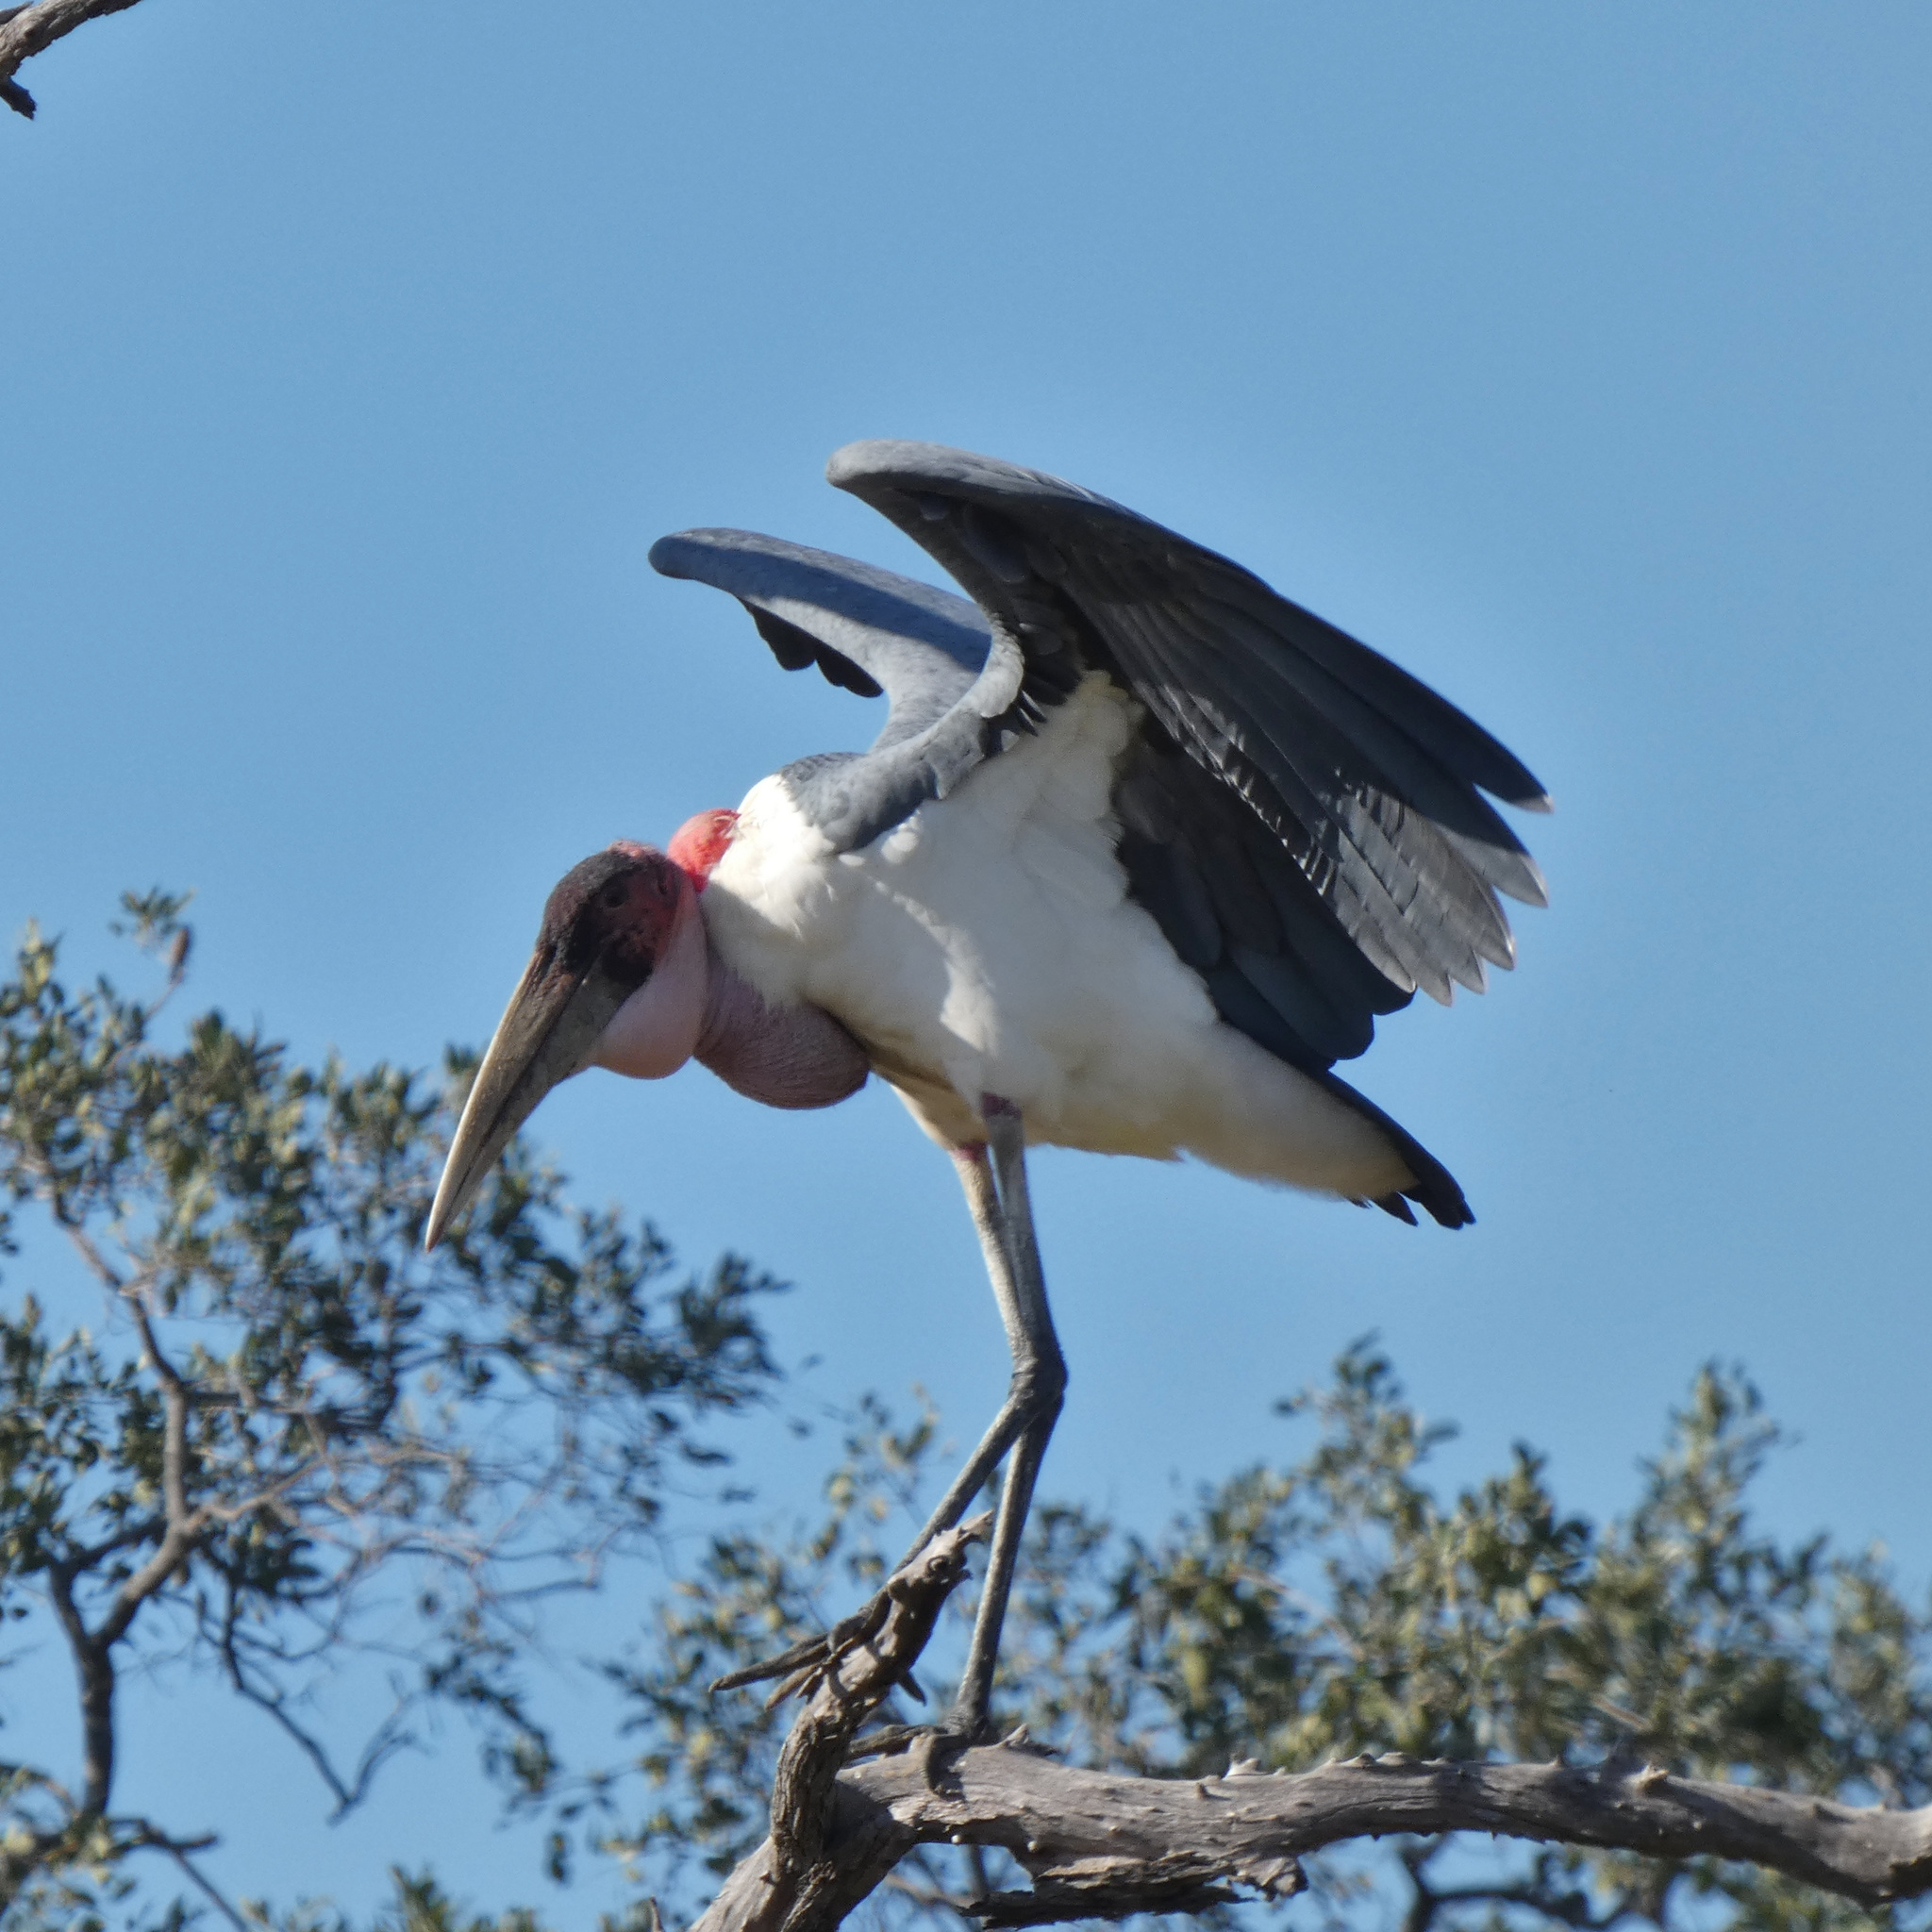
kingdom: Animalia
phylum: Chordata
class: Aves
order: Ciconiiformes
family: Ciconiidae
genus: Leptoptilos
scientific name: Leptoptilos crumenifer
